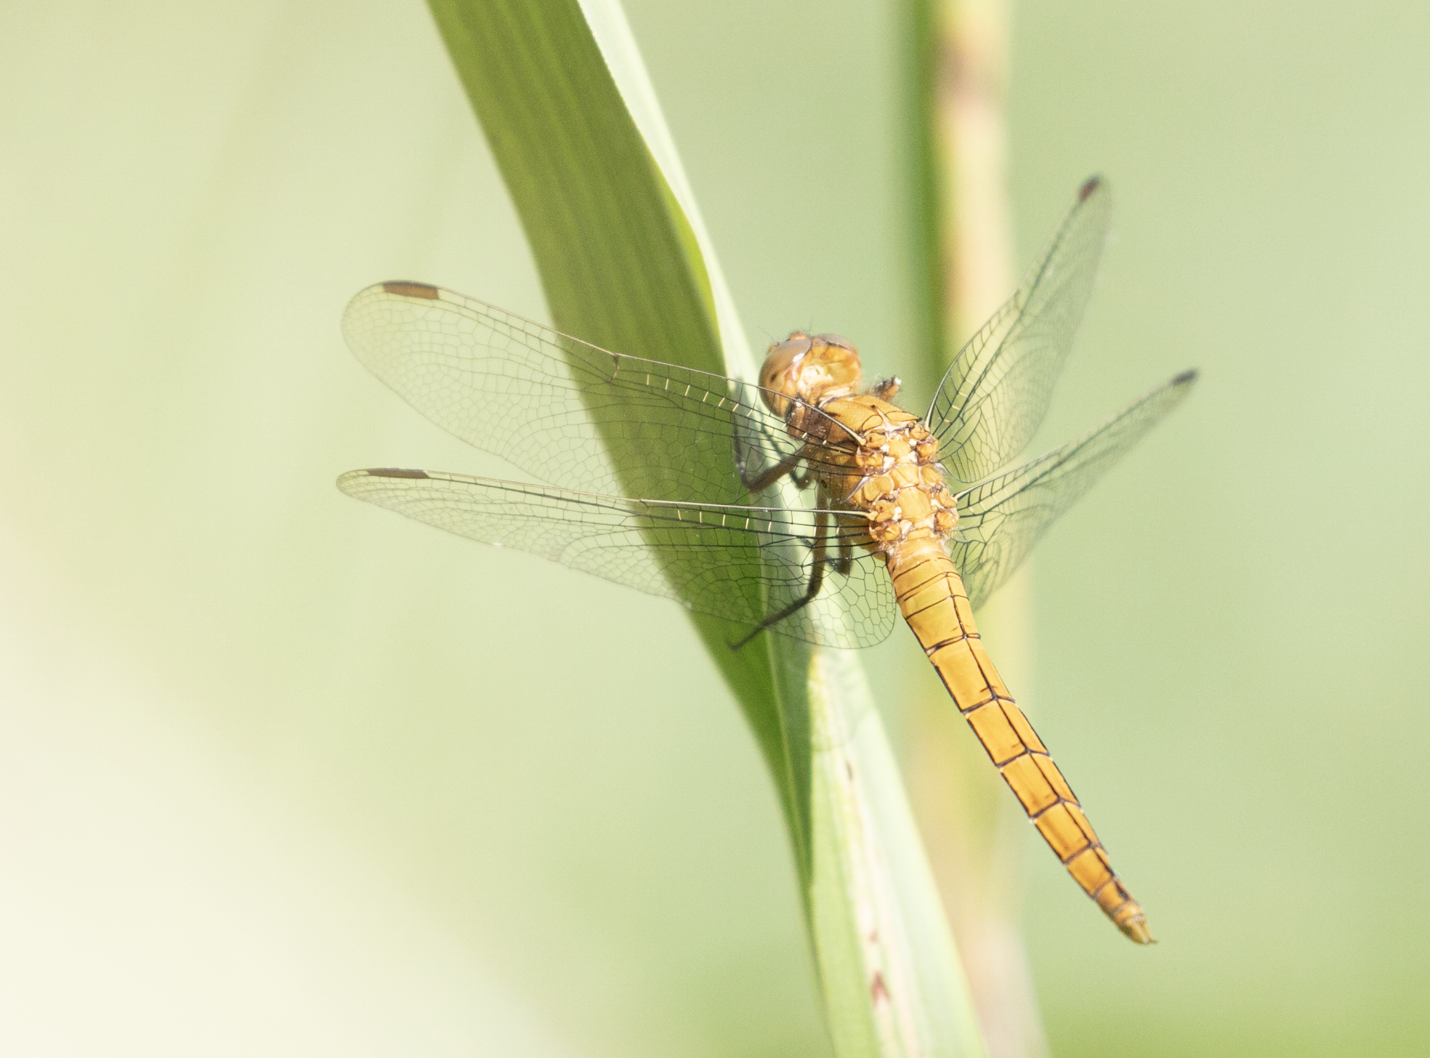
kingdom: Animalia
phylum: Arthropoda
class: Insecta
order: Odonata
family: Libellulidae
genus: Orthetrum
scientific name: Orthetrum coerulescens
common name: Keeled skimmer
